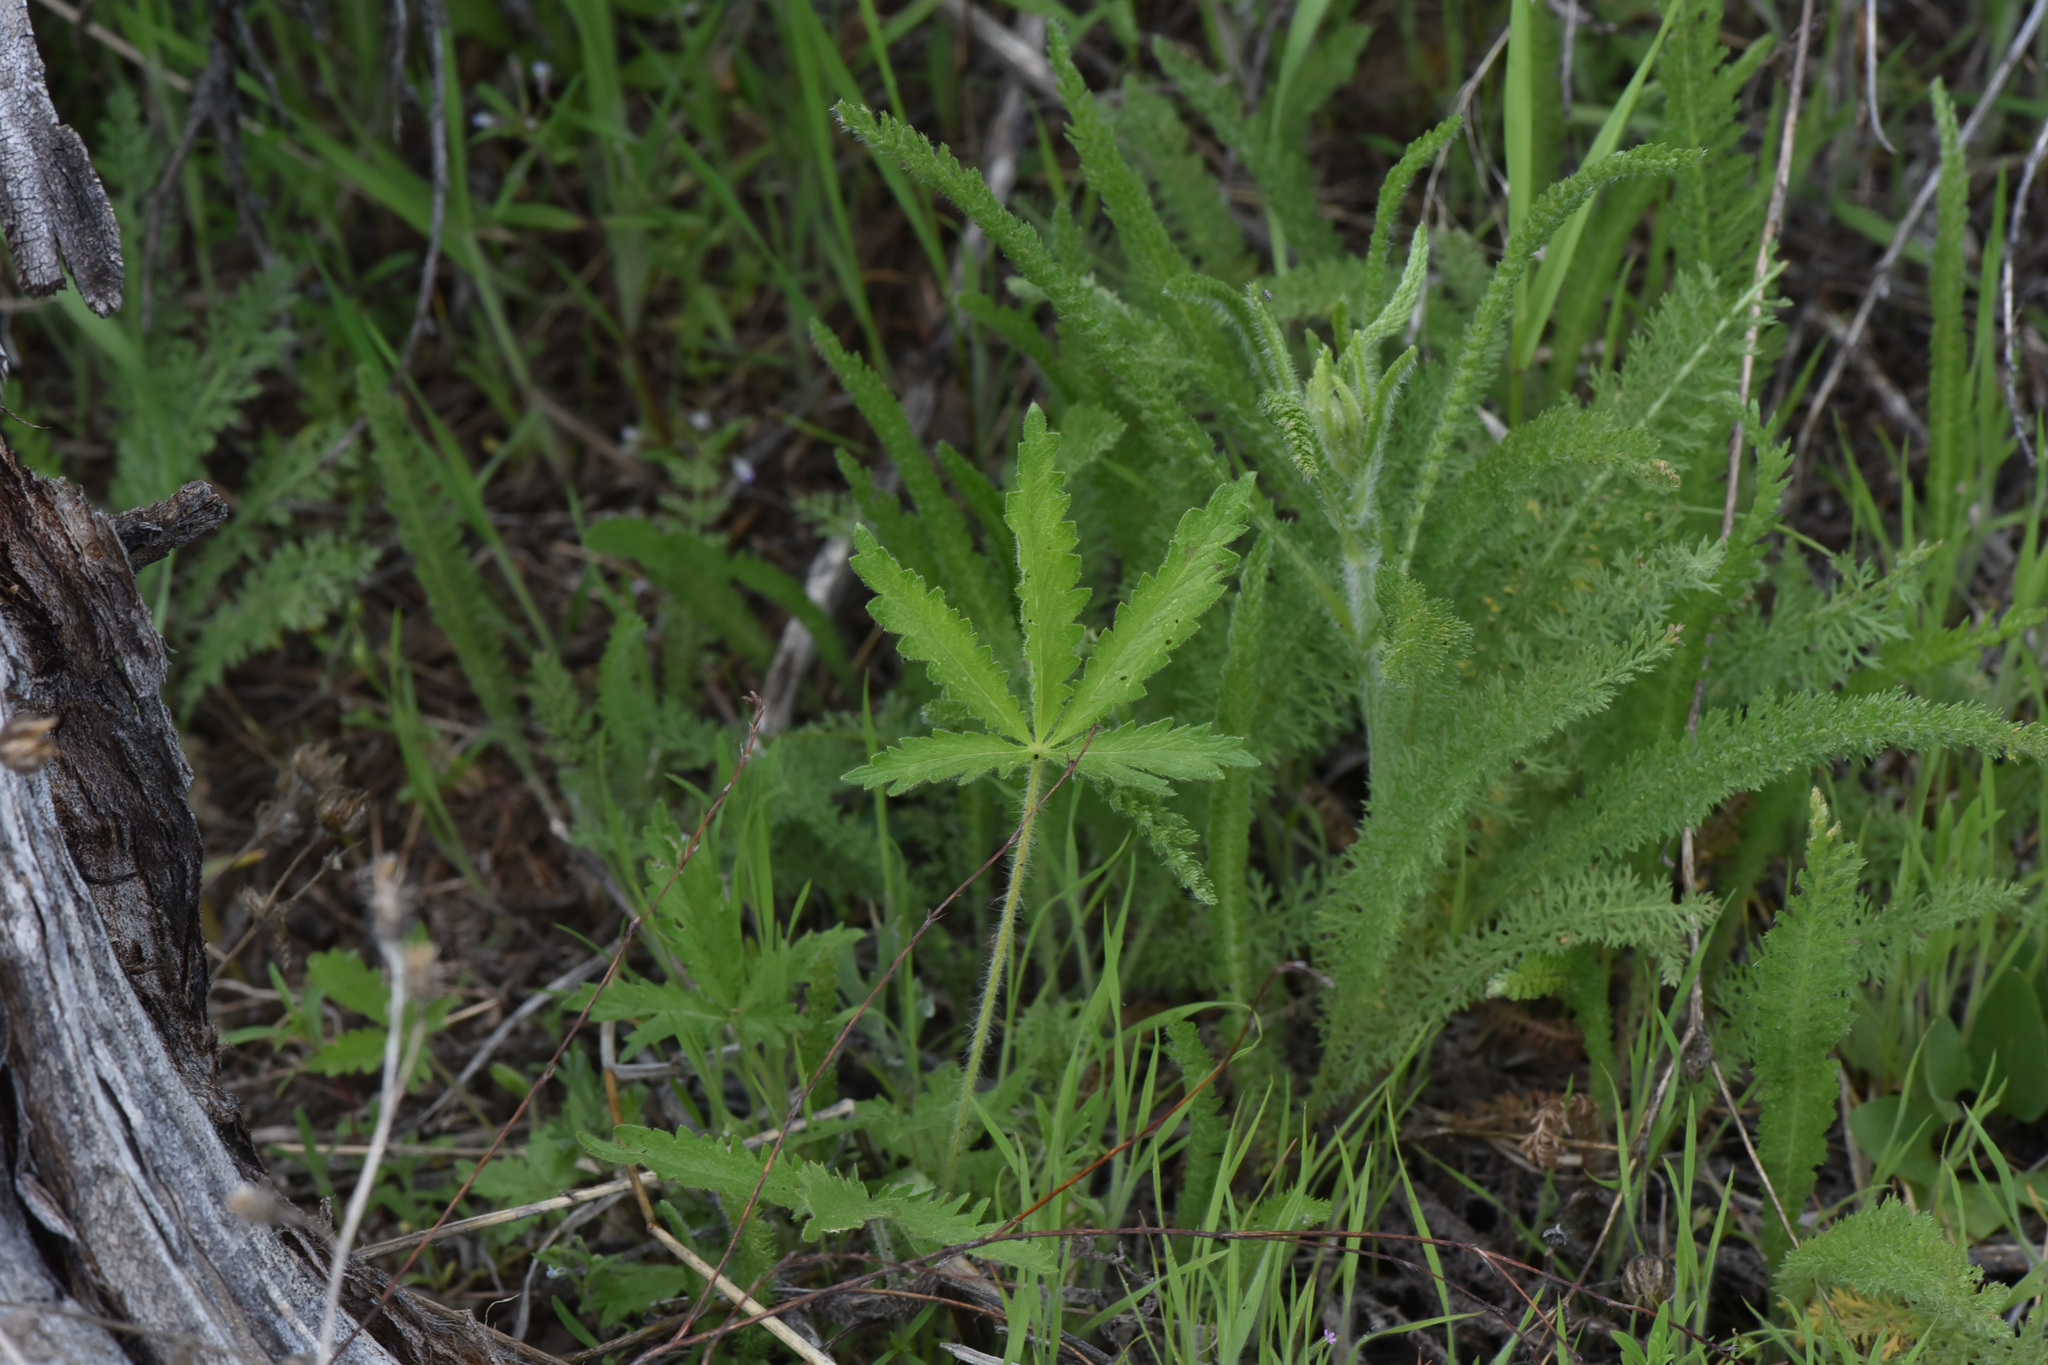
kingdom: Plantae
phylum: Tracheophyta
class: Magnoliopsida
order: Rosales
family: Rosaceae
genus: Potentilla
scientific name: Potentilla recta
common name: Sulphur cinquefoil
